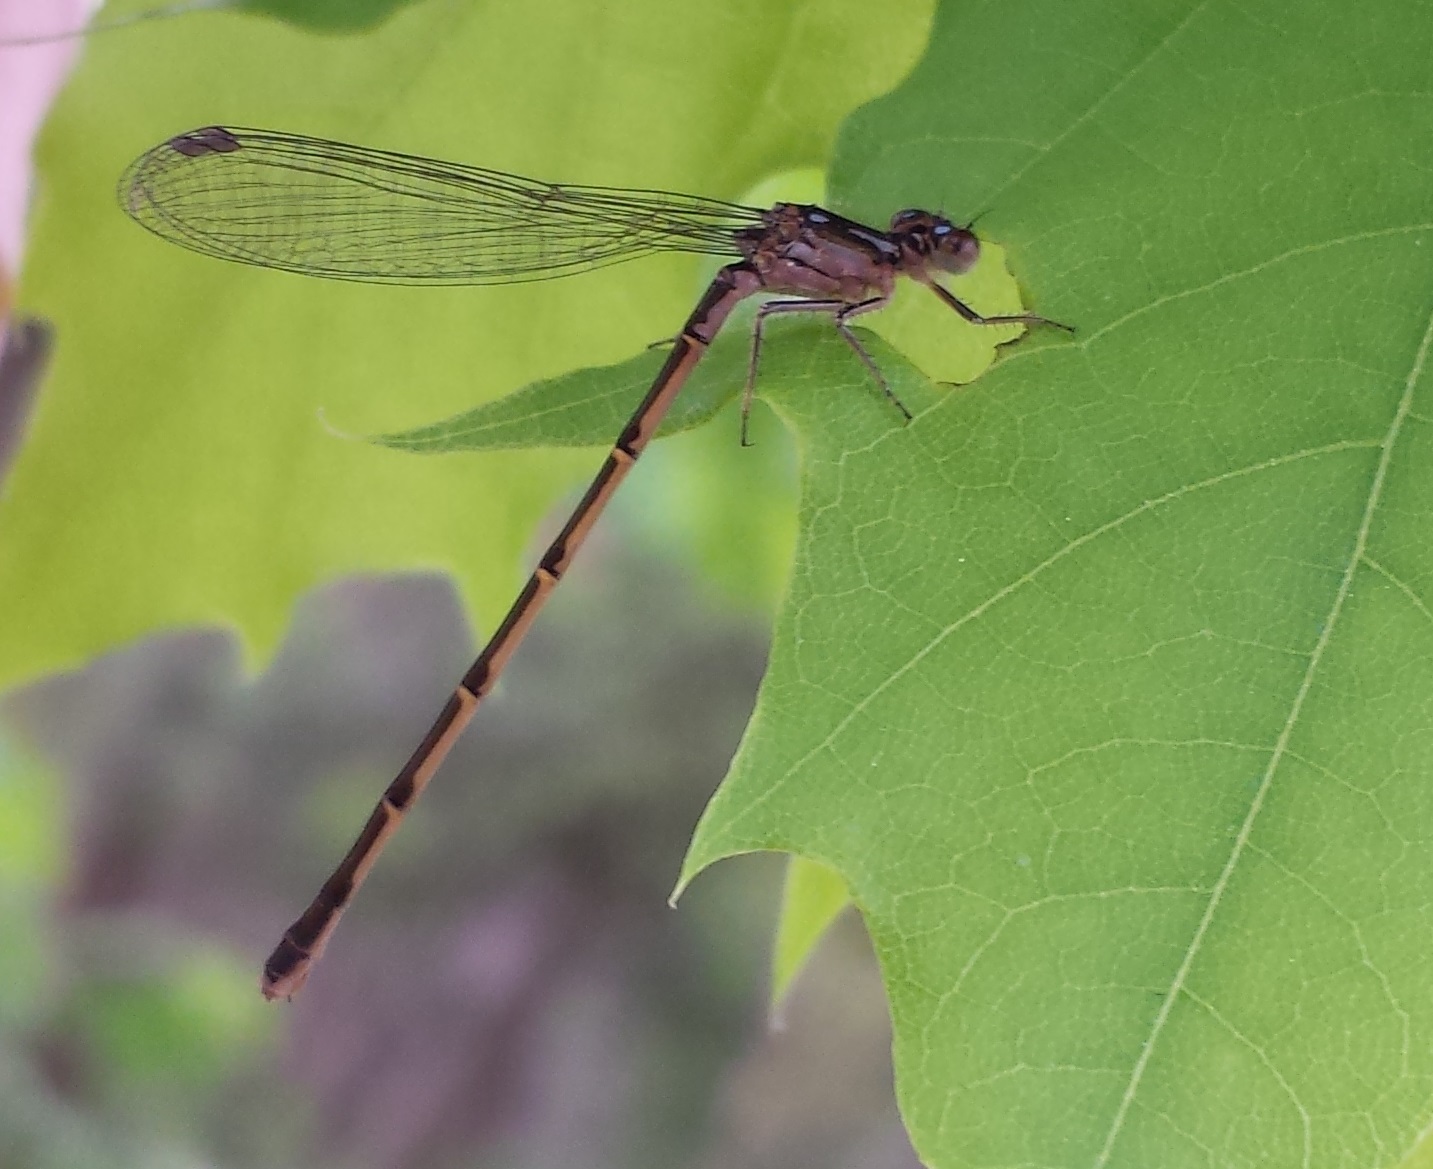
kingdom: Animalia
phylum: Arthropoda
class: Insecta
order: Odonata
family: Coenagrionidae
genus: Ischnura
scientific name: Ischnura posita
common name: Fragile forktail
